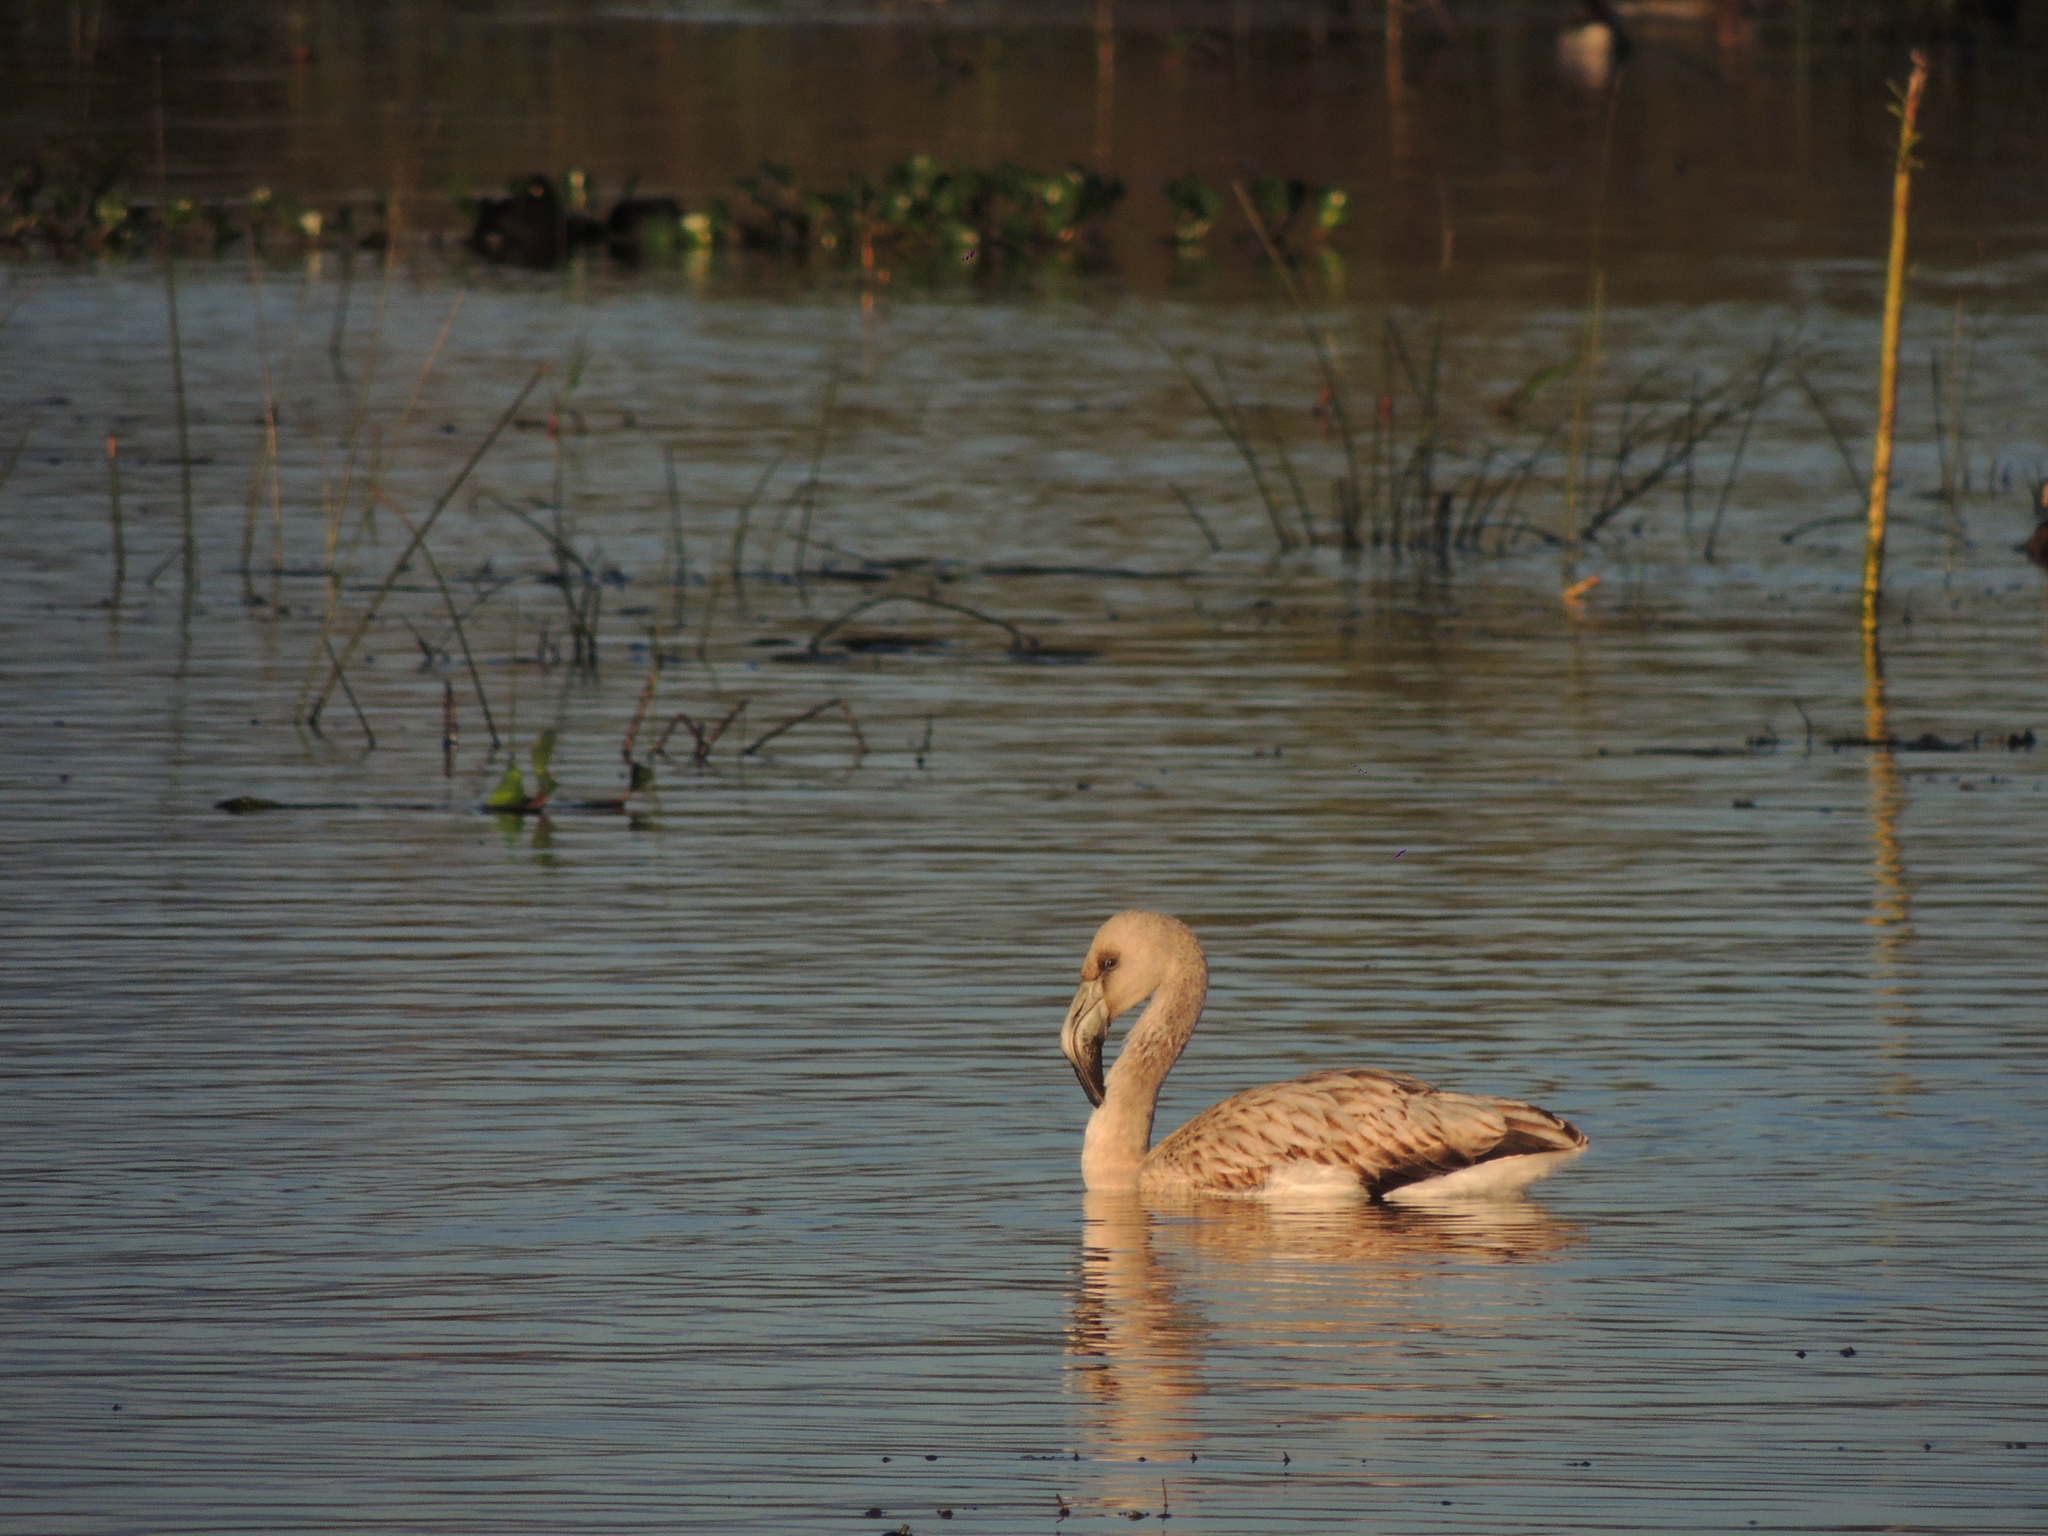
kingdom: Animalia
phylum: Chordata
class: Aves
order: Phoenicopteriformes
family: Phoenicopteridae
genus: Phoenicopterus
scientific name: Phoenicopterus chilensis
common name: Chilean flamingo
